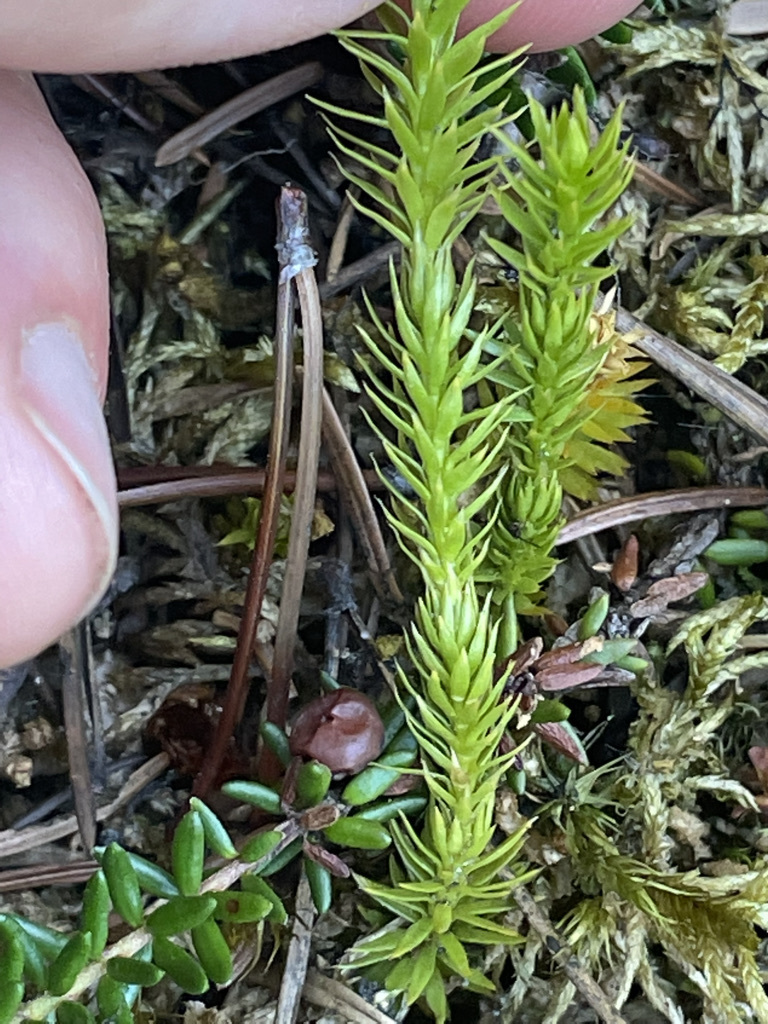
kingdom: Plantae
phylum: Tracheophyta
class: Lycopodiopsida
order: Lycopodiales
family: Lycopodiaceae
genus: Spinulum
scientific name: Spinulum annotinum
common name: Interrupted club-moss
